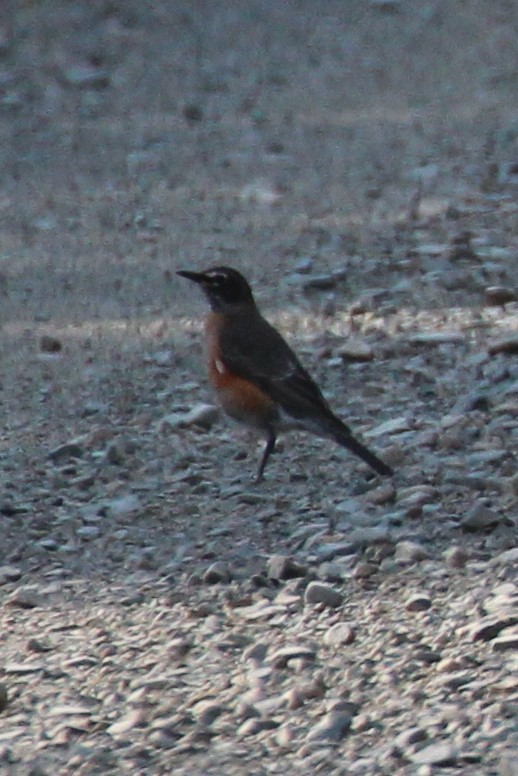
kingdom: Animalia
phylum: Chordata
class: Aves
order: Passeriformes
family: Turdidae
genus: Turdus
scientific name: Turdus migratorius
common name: American robin
